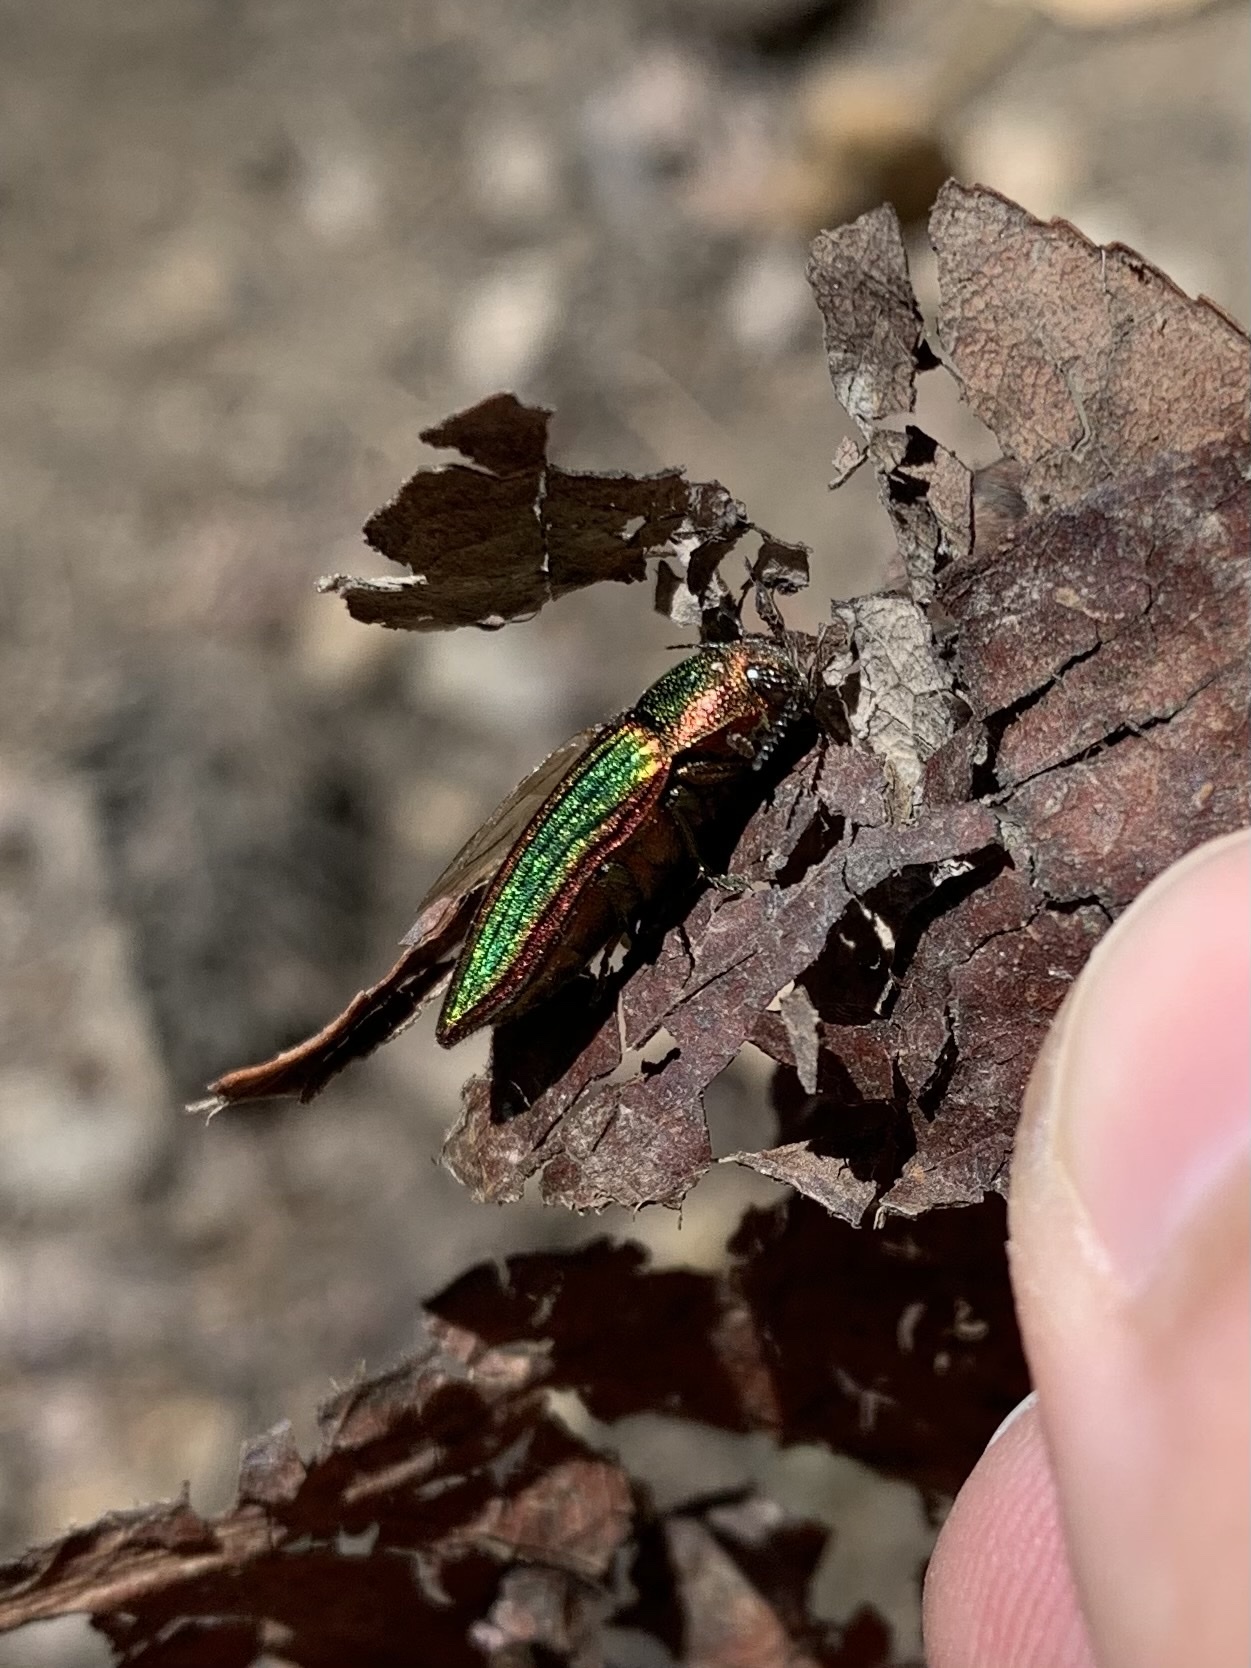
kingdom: Animalia
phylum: Arthropoda
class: Insecta
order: Coleoptera
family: Buprestidae
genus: Buprestis
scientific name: Buprestis aurulenta
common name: Golden buprestid
